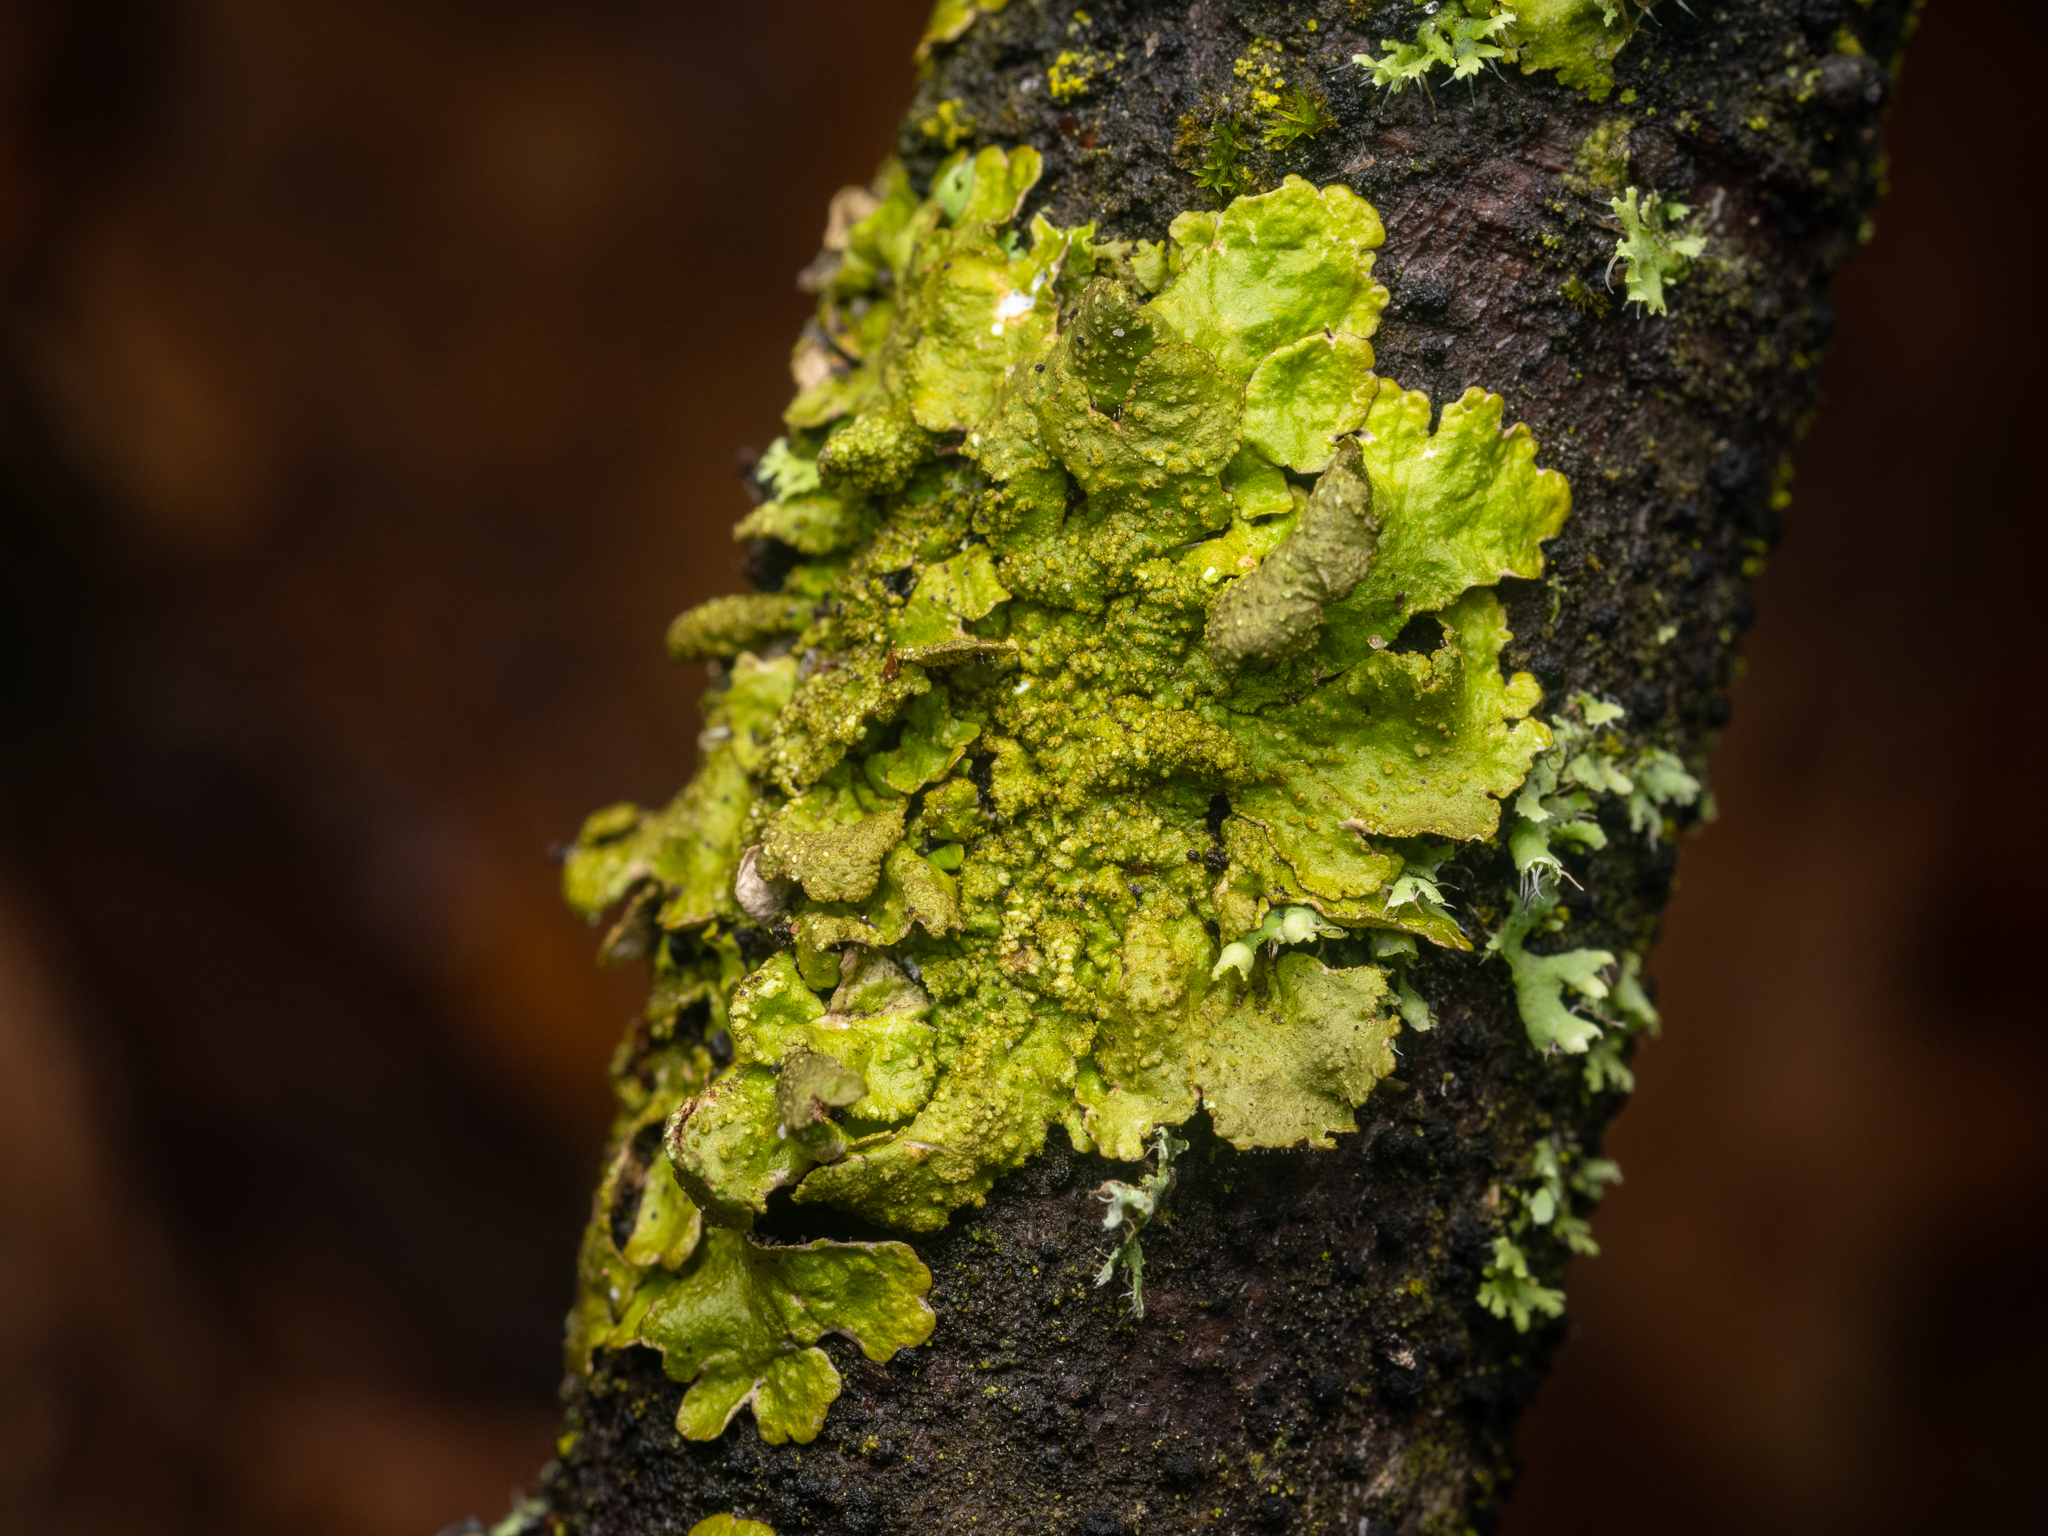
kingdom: Fungi
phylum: Ascomycota
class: Lecanoromycetes
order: Lecanorales
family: Parmeliaceae
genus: Melanelixia
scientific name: Melanelixia subaurifera
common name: Abraded camouflage lichen
